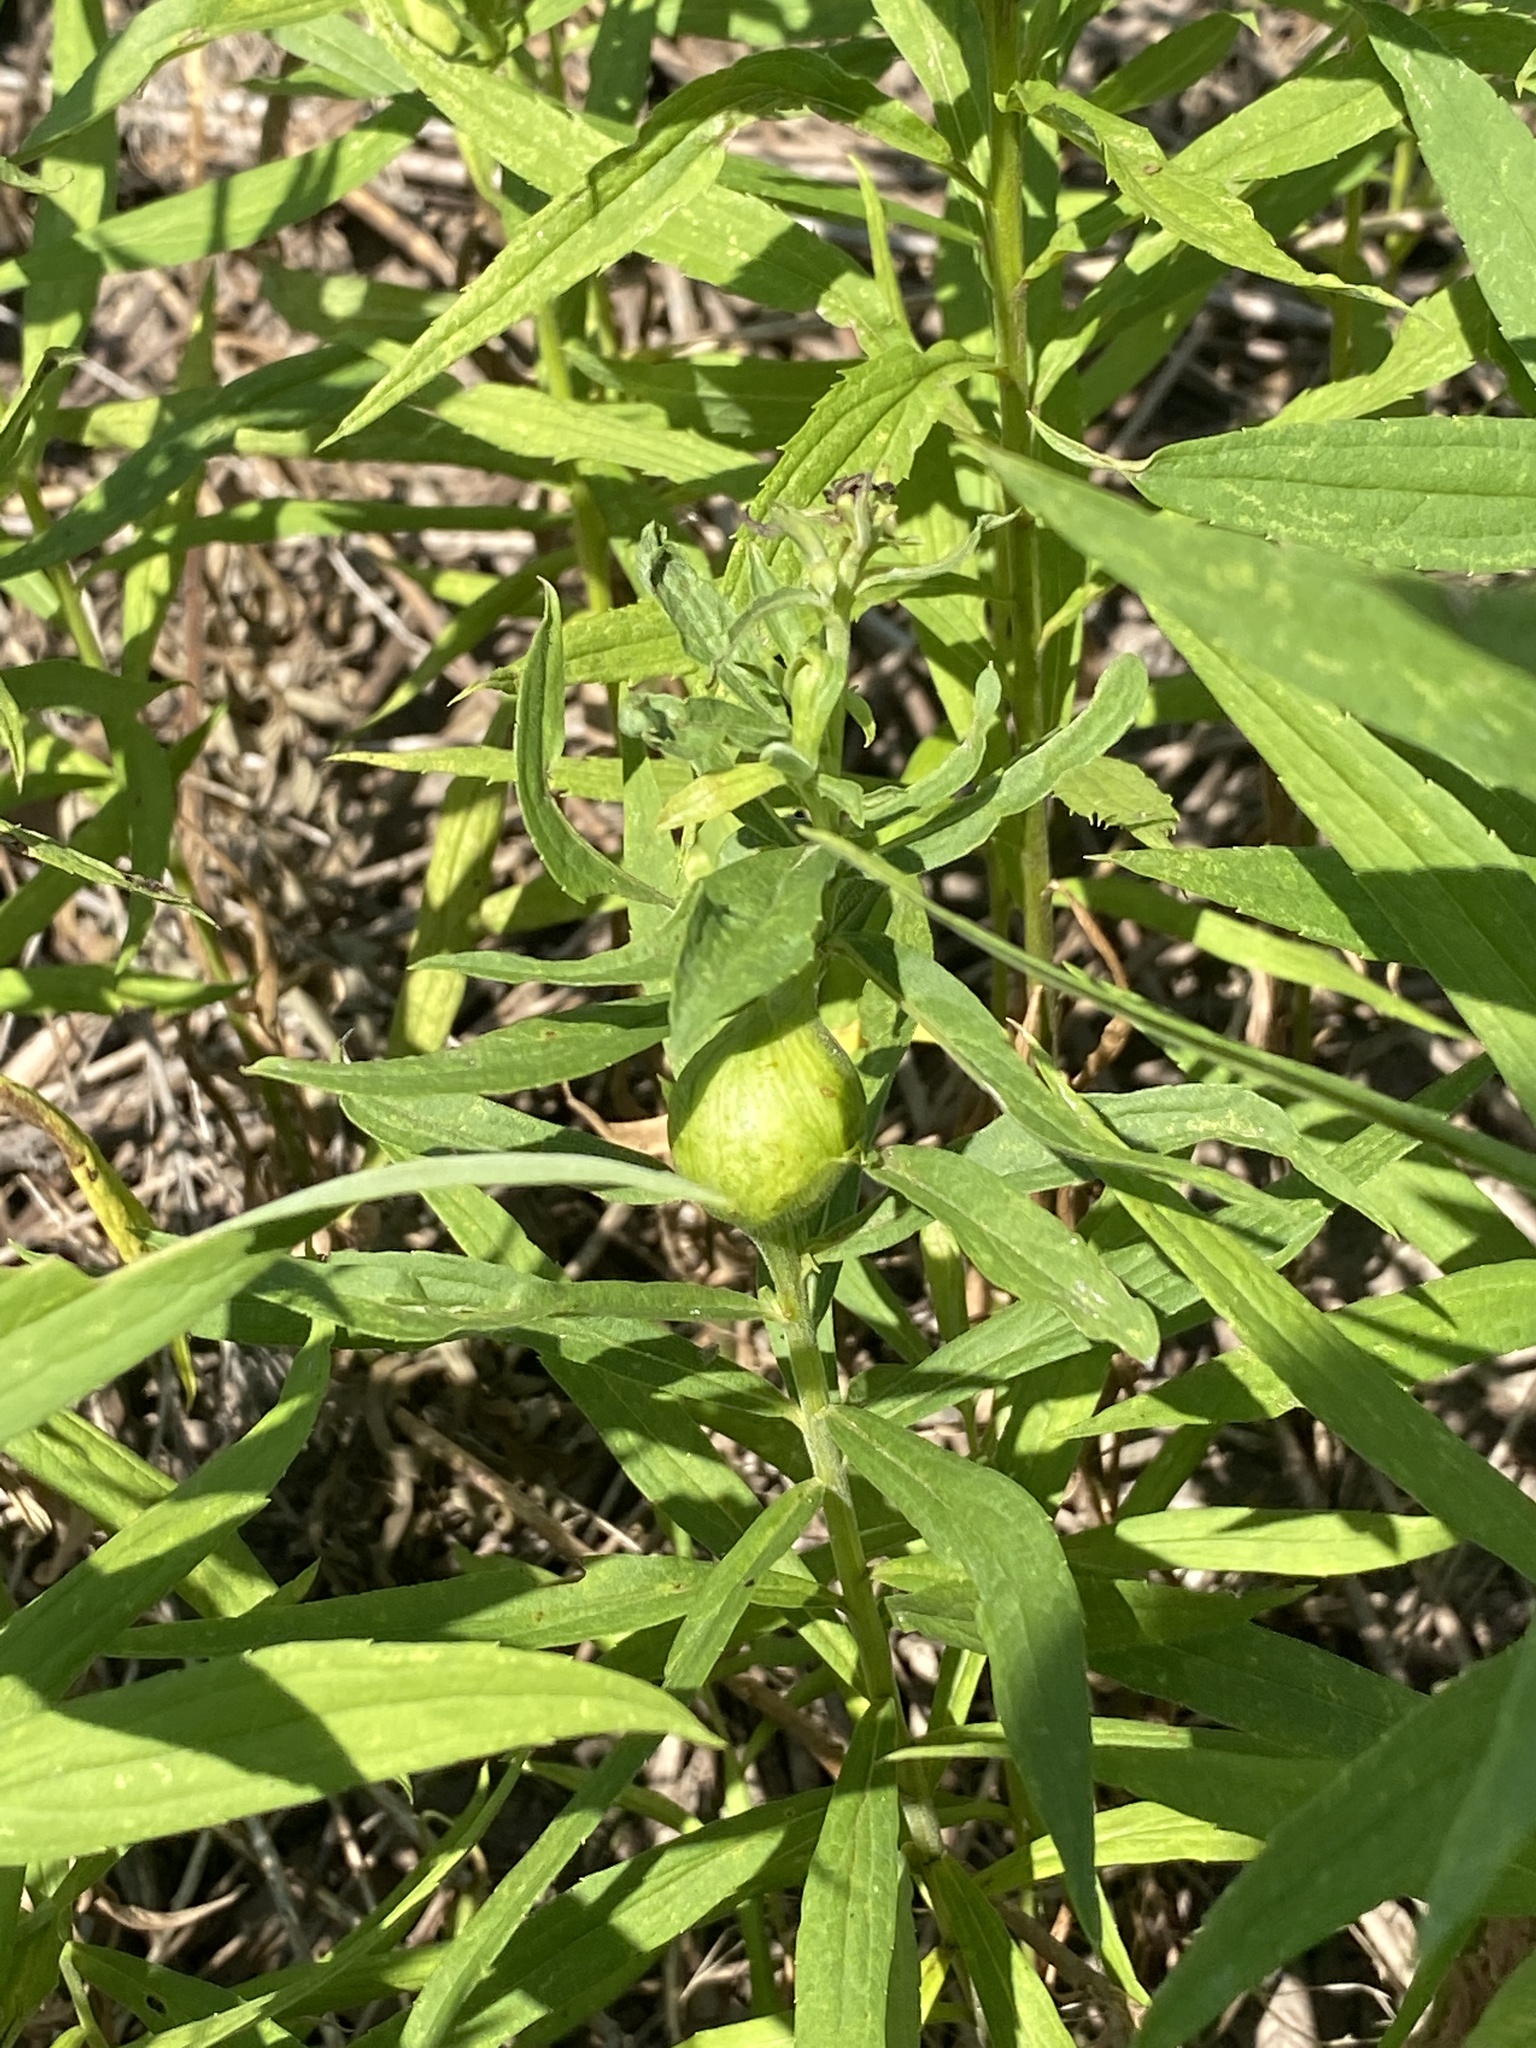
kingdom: Animalia
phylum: Arthropoda
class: Insecta
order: Diptera
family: Tephritidae
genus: Eurosta
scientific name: Eurosta solidaginis
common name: Goldenrod gall fly
